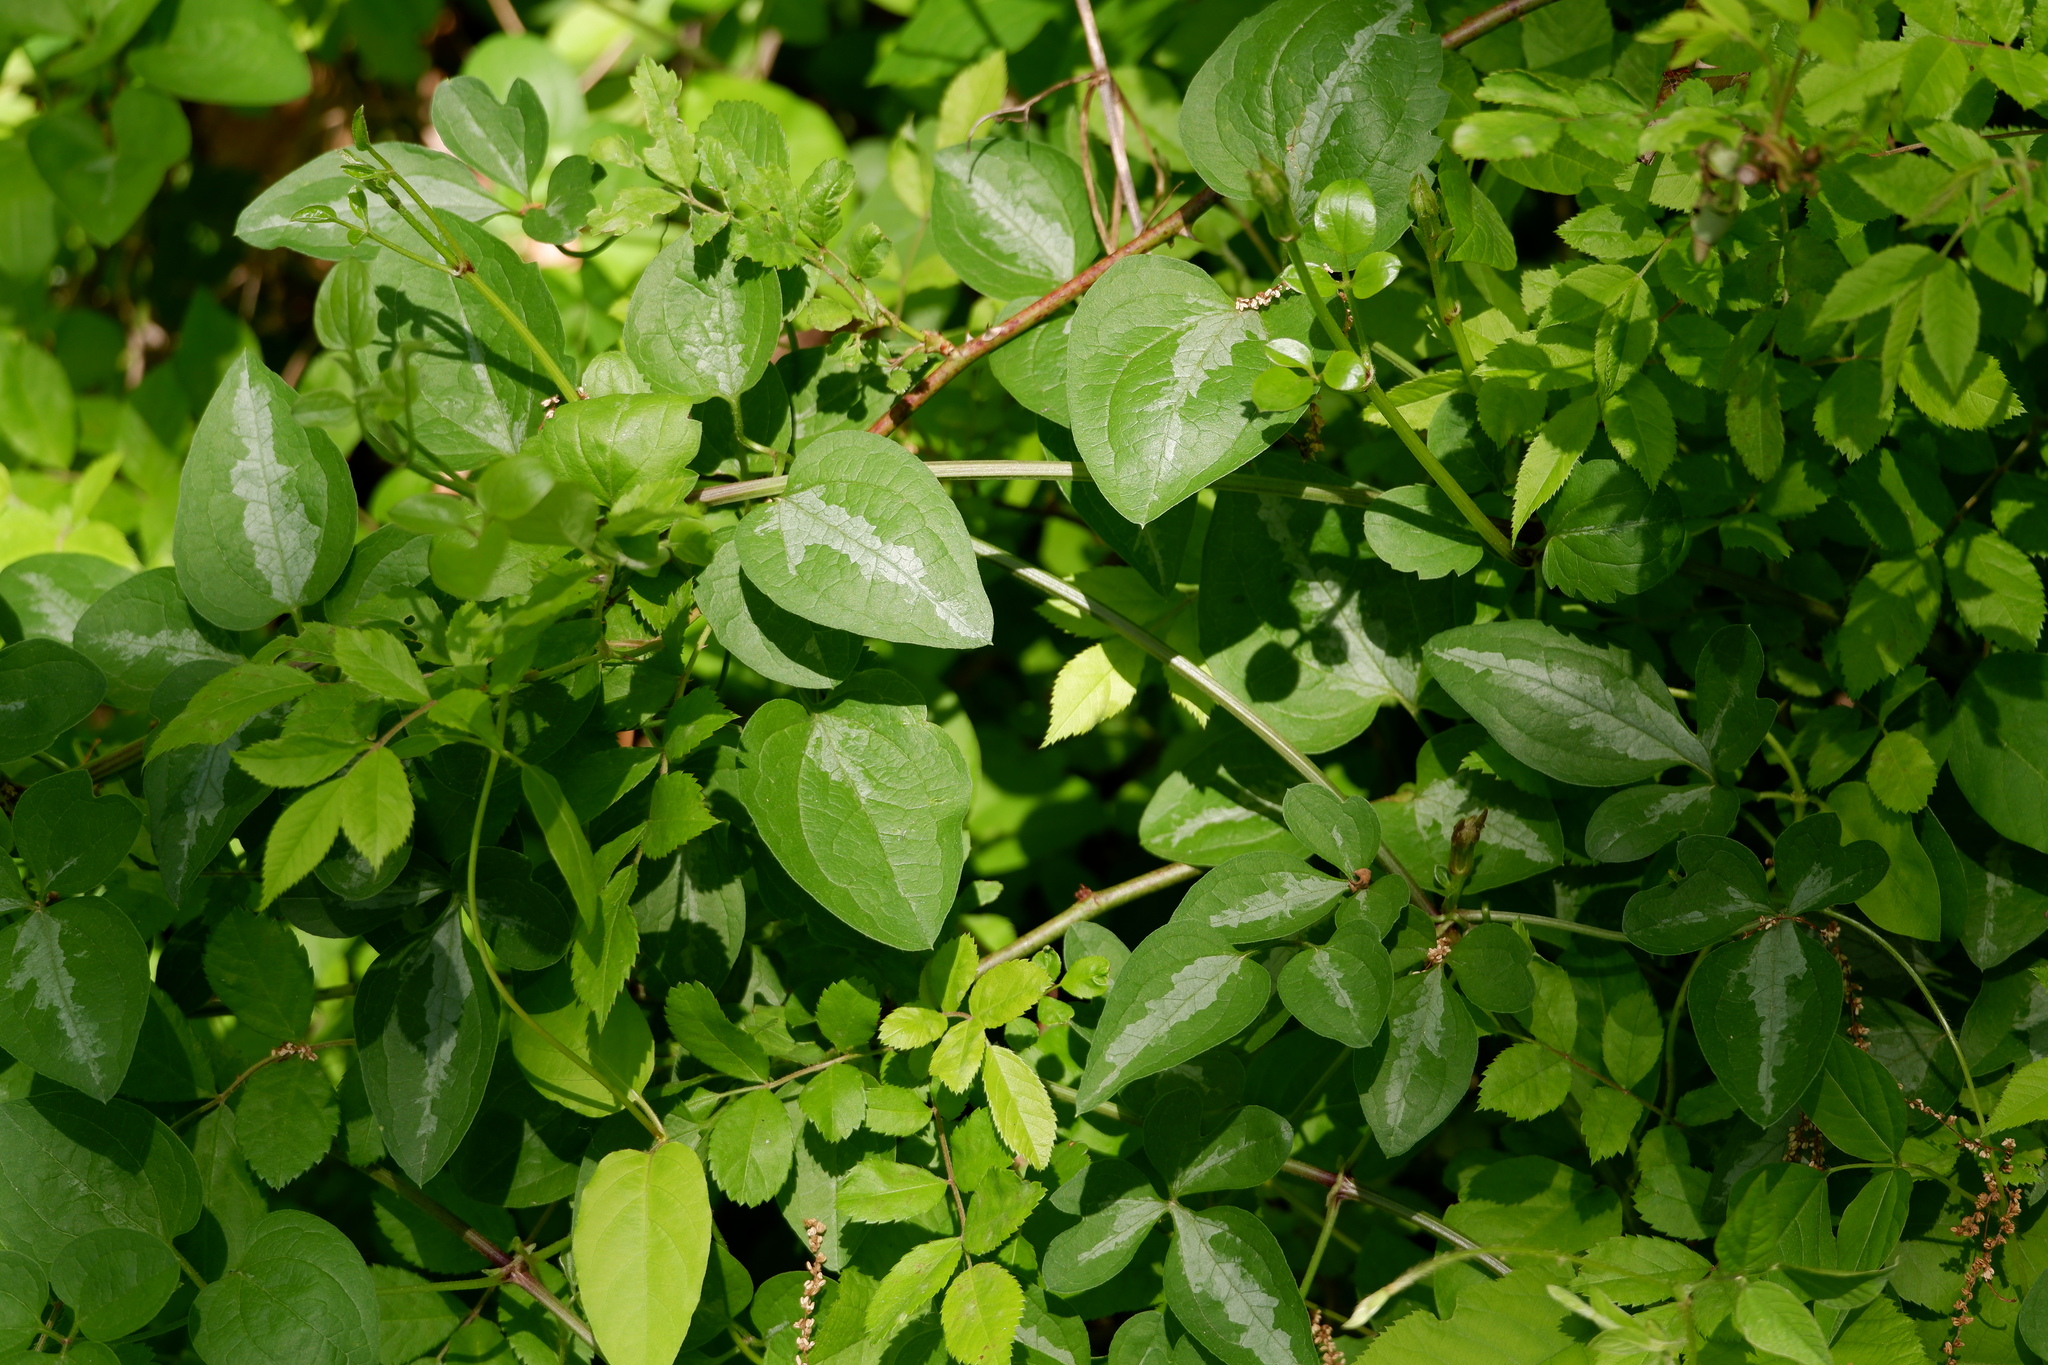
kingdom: Plantae
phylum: Tracheophyta
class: Magnoliopsida
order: Ranunculales
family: Ranunculaceae
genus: Clematis
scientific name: Clematis terniflora
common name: Sweet autumn clematis
